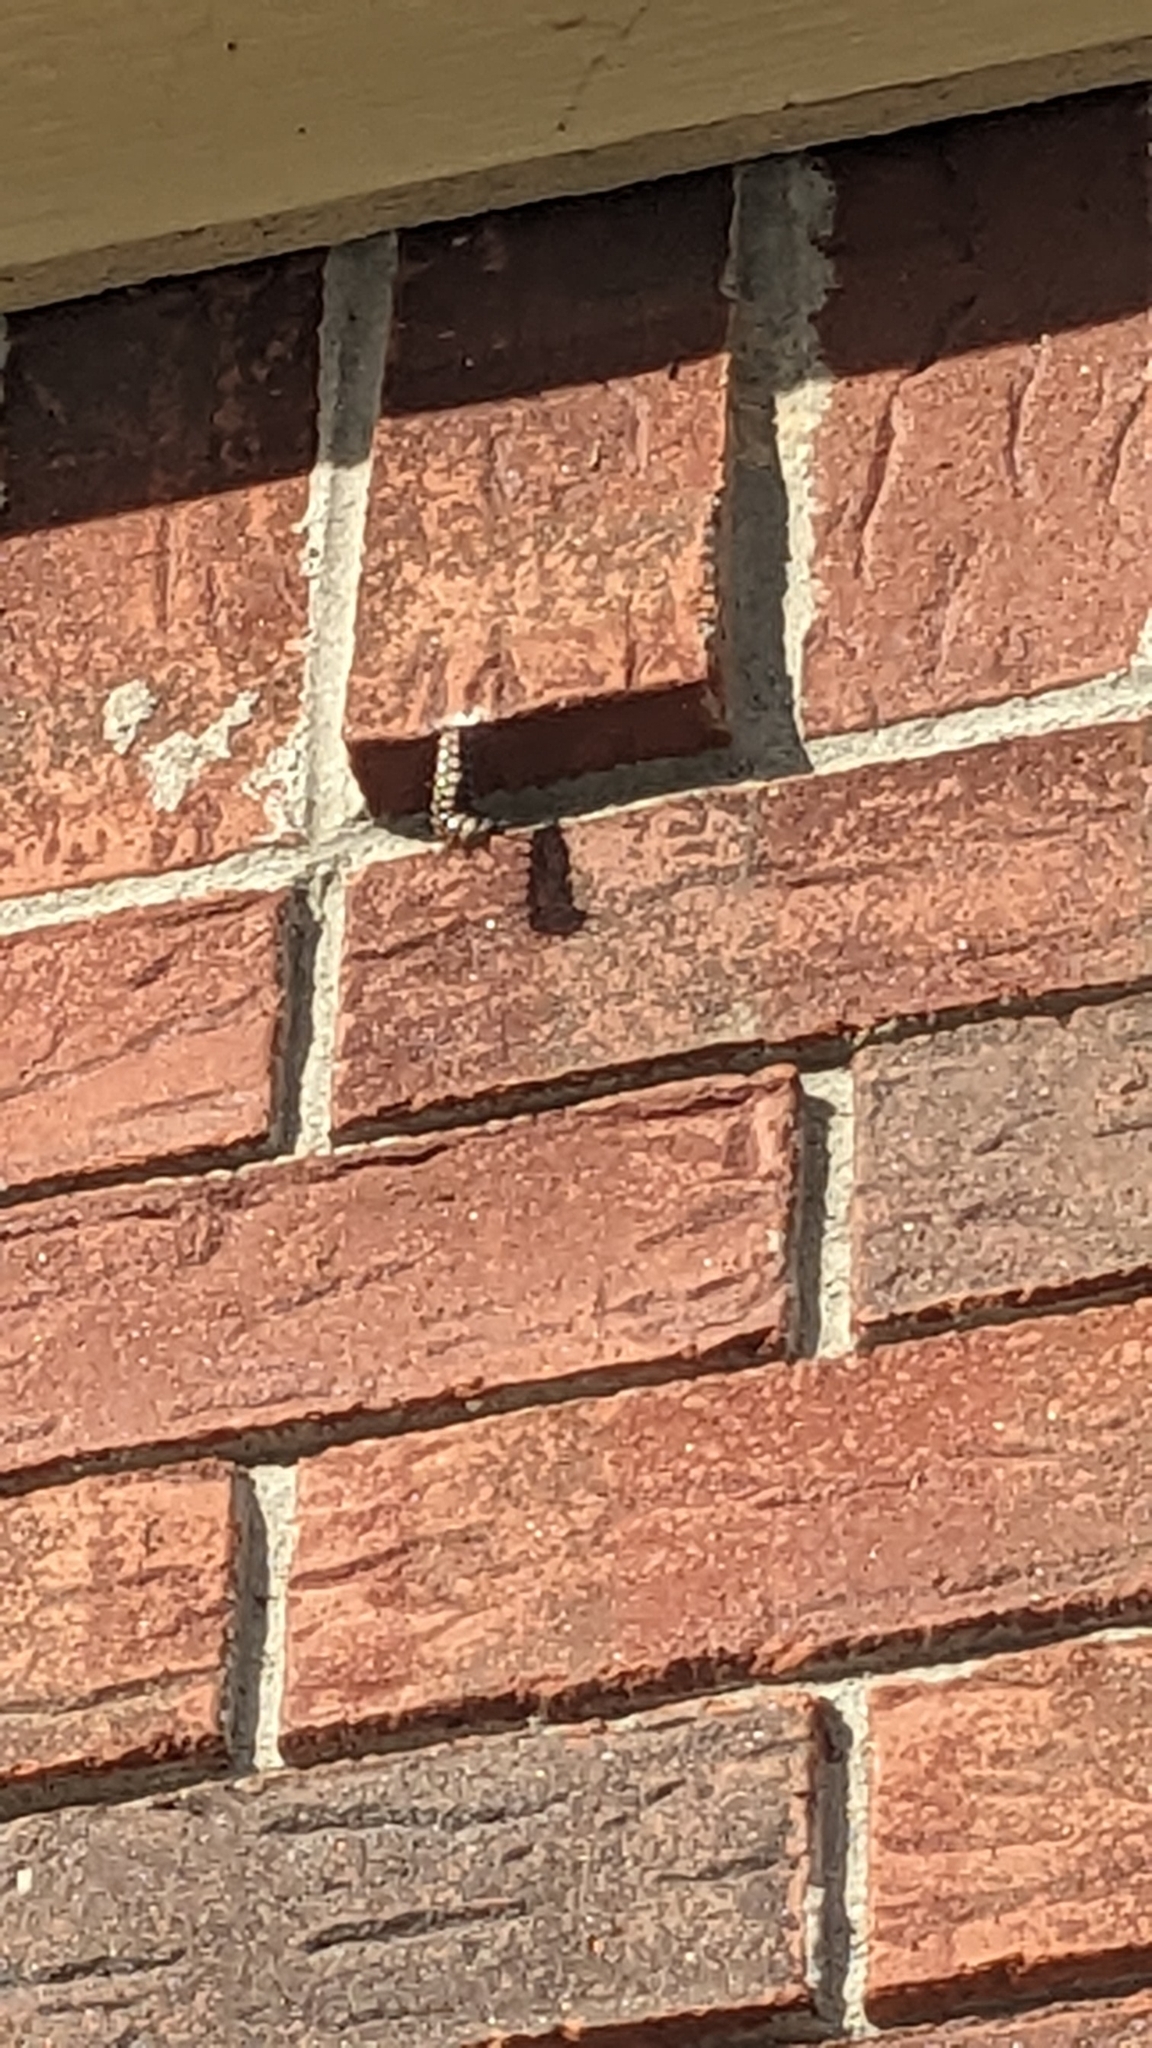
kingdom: Animalia
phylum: Arthropoda
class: Insecta
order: Lepidoptera
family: Nymphalidae
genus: Dione
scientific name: Dione vanillae
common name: Gulf fritillary
